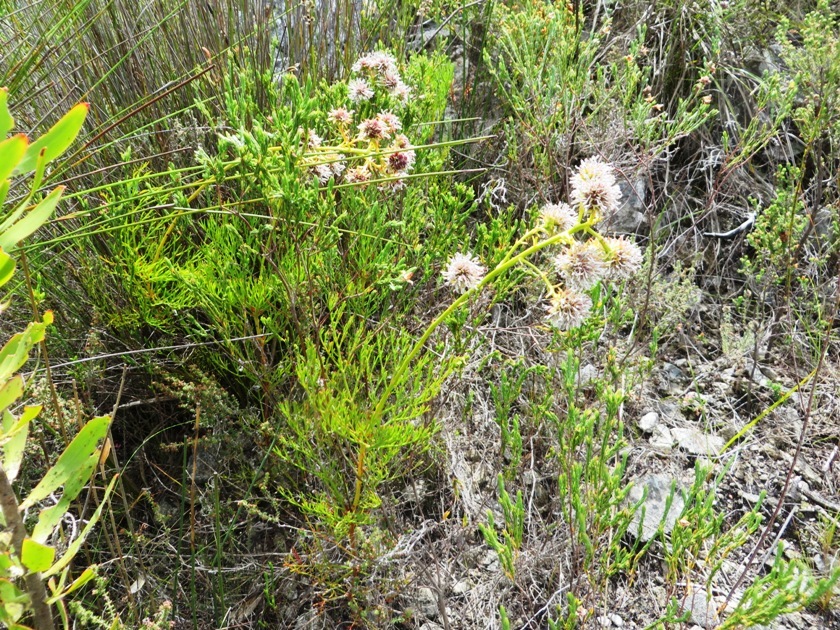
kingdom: Plantae
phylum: Tracheophyta
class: Magnoliopsida
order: Proteales
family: Proteaceae
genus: Serruria
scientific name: Serruria elongata
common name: Long-stalk spiderhead
